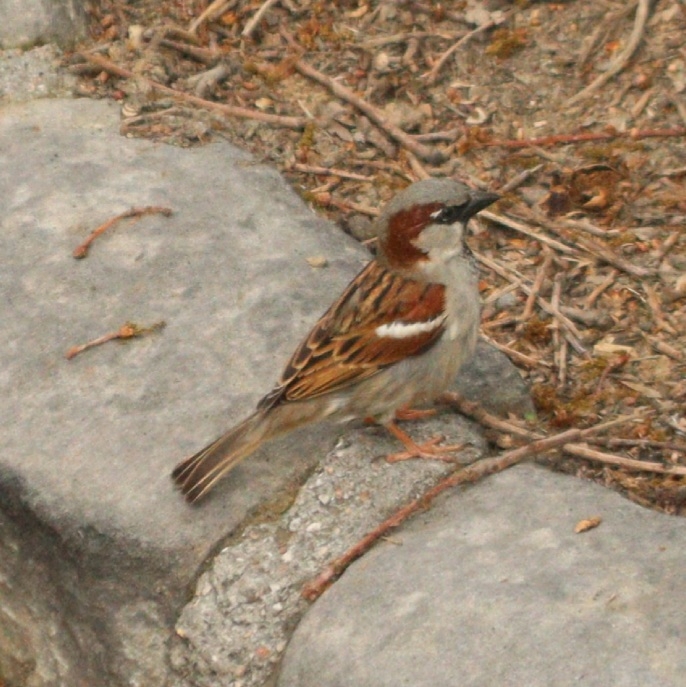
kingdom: Animalia
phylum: Chordata
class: Aves
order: Passeriformes
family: Passeridae
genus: Passer
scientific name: Passer domesticus
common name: House sparrow
